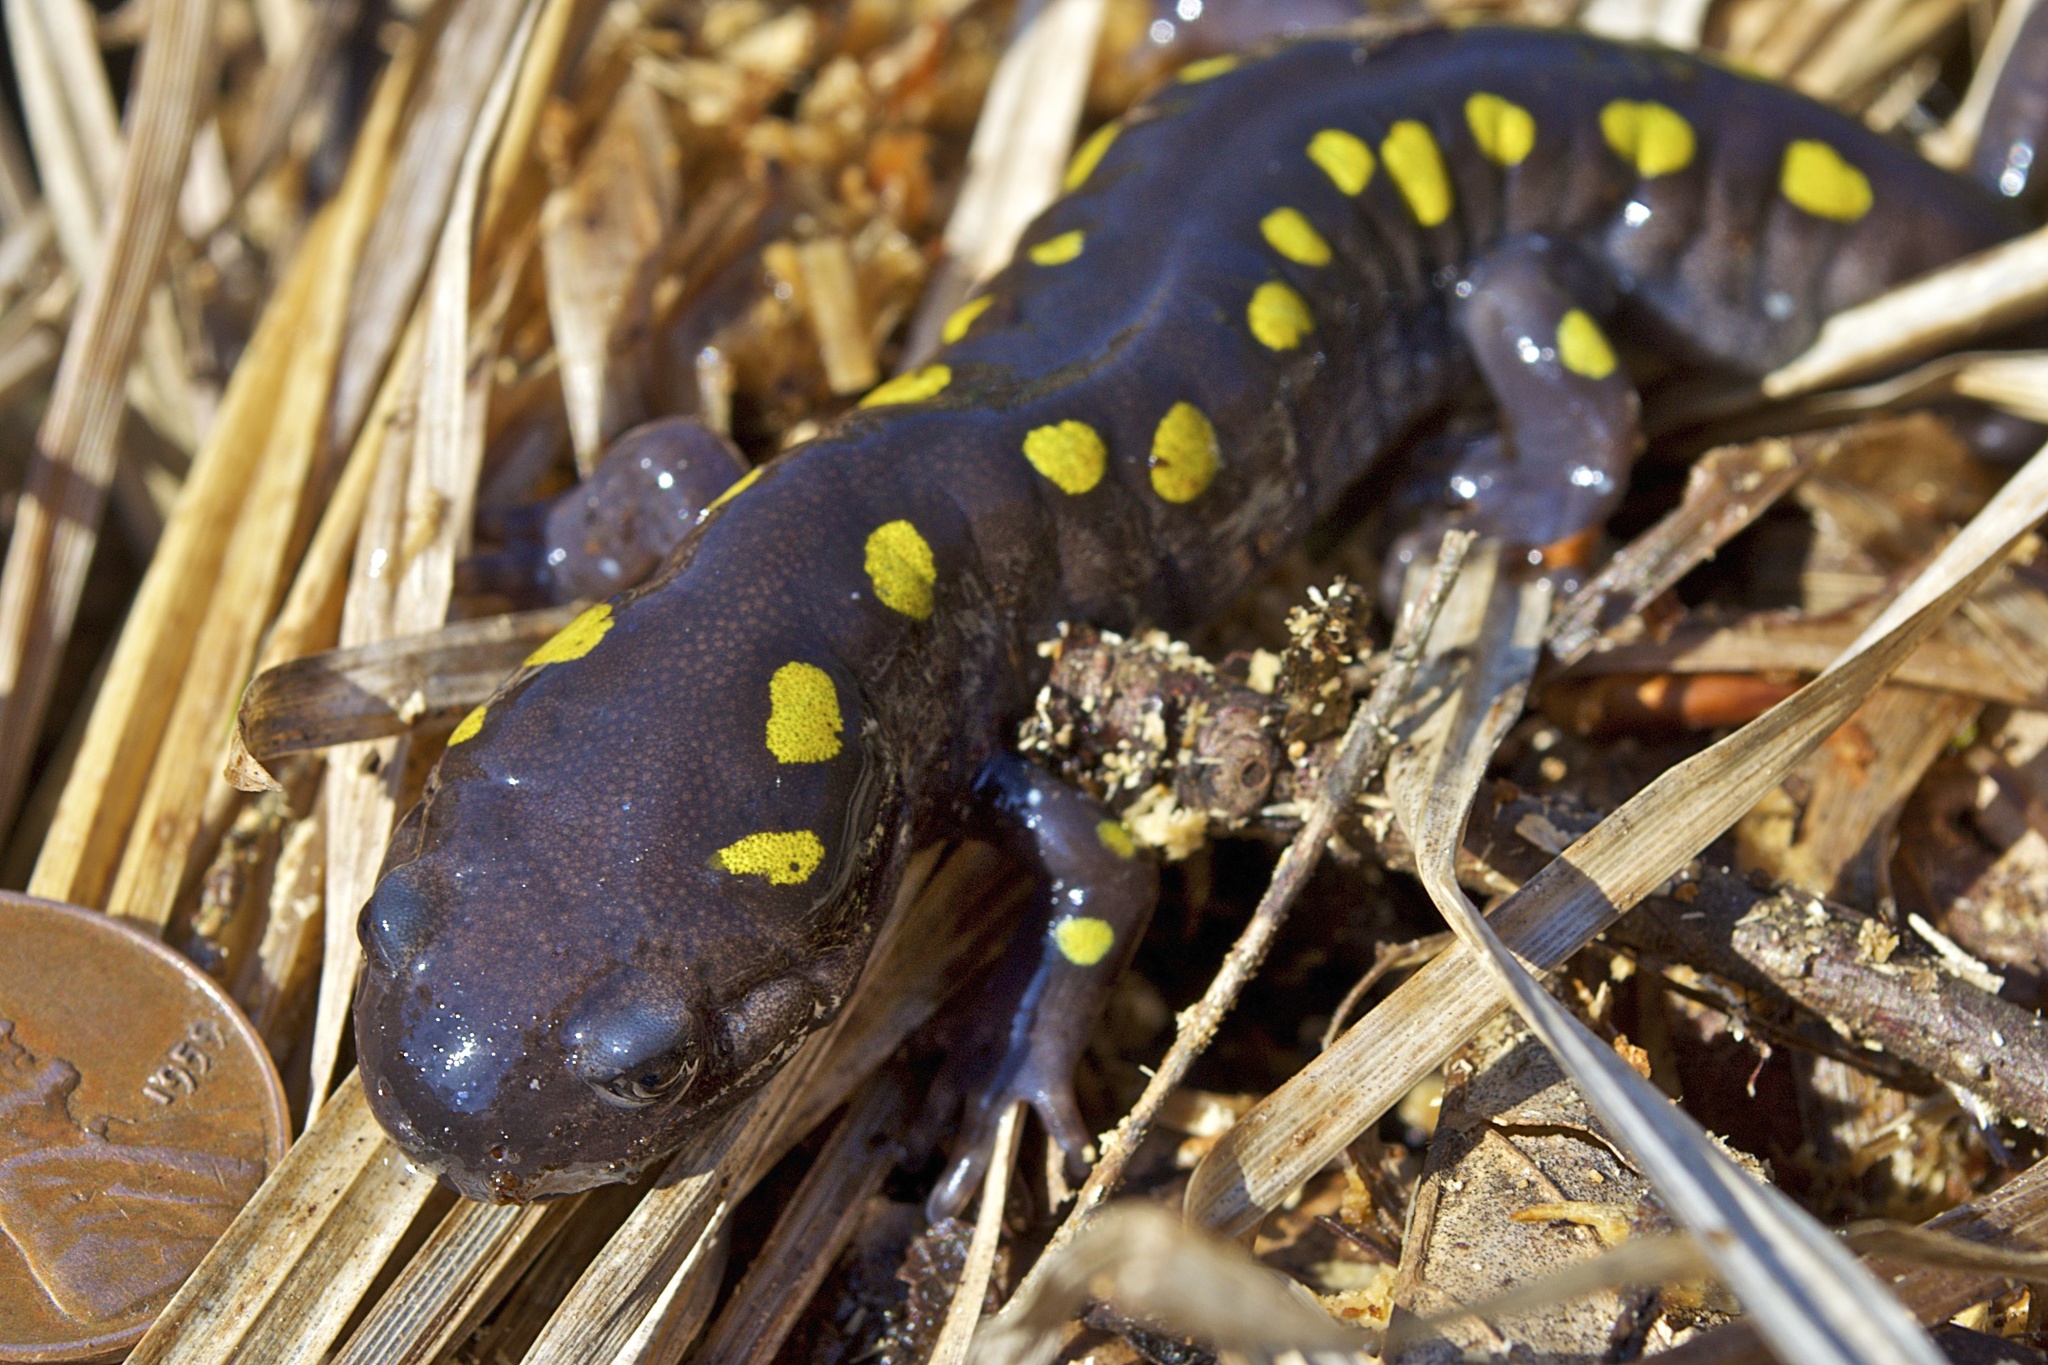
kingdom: Animalia
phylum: Chordata
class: Amphibia
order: Caudata
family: Ambystomatidae
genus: Ambystoma
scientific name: Ambystoma maculatum
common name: Spotted salamander
